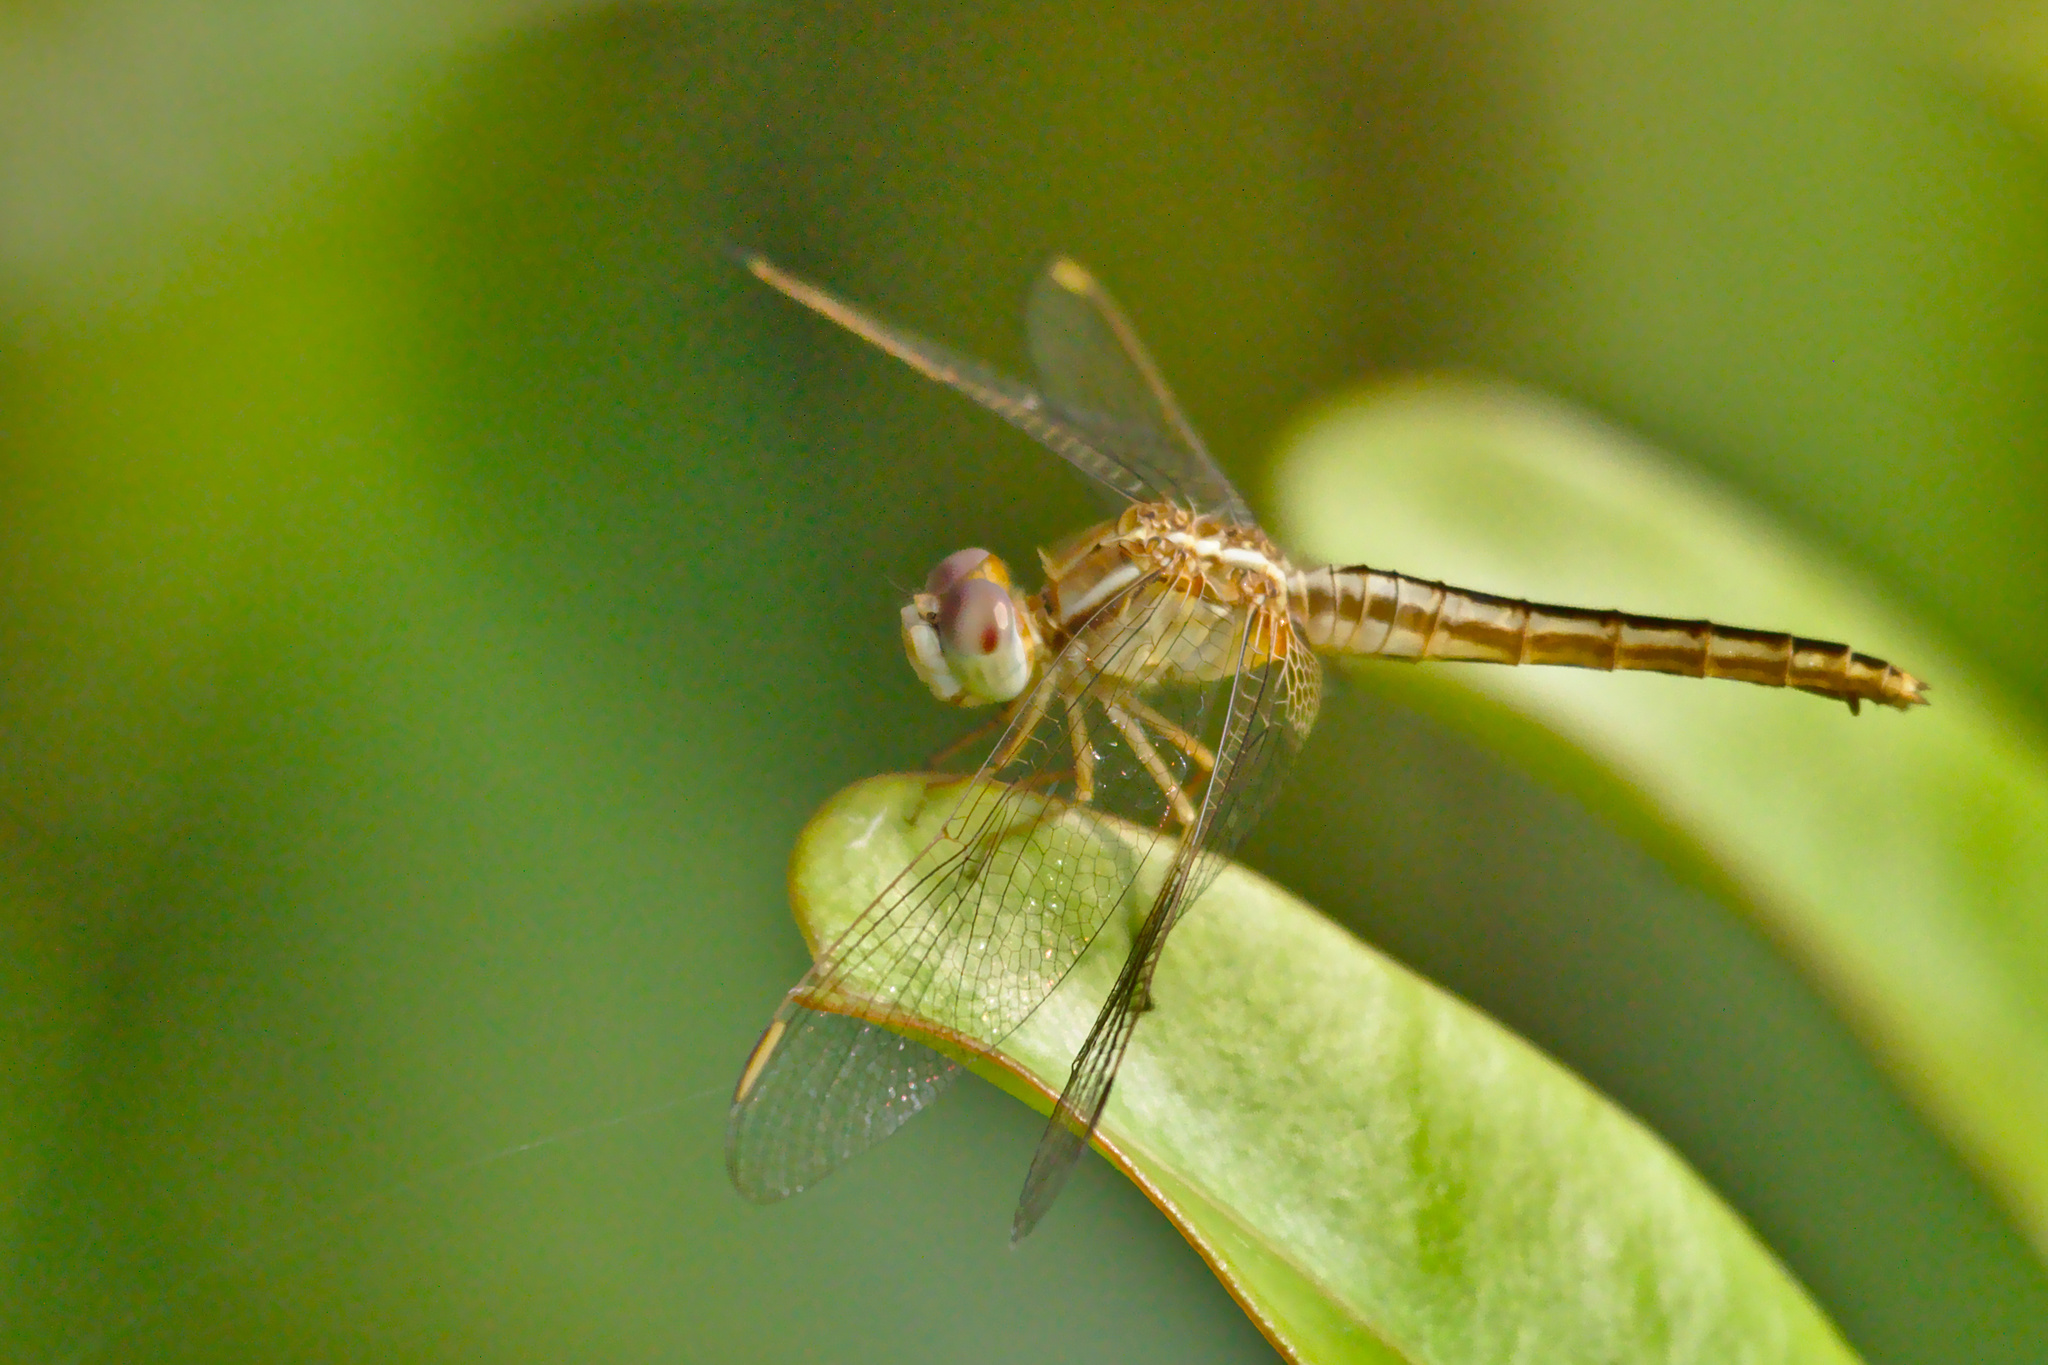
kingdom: Animalia
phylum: Arthropoda
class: Insecta
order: Odonata
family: Libellulidae
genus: Crocothemis
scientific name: Crocothemis servilia
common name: Scarlet skimmer
